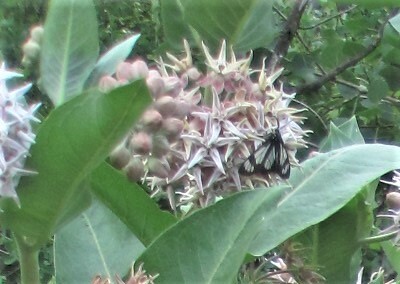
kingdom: Animalia
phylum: Arthropoda
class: Insecta
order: Lepidoptera
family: Erebidae
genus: Gnophaela
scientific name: Gnophaela vermiculata
